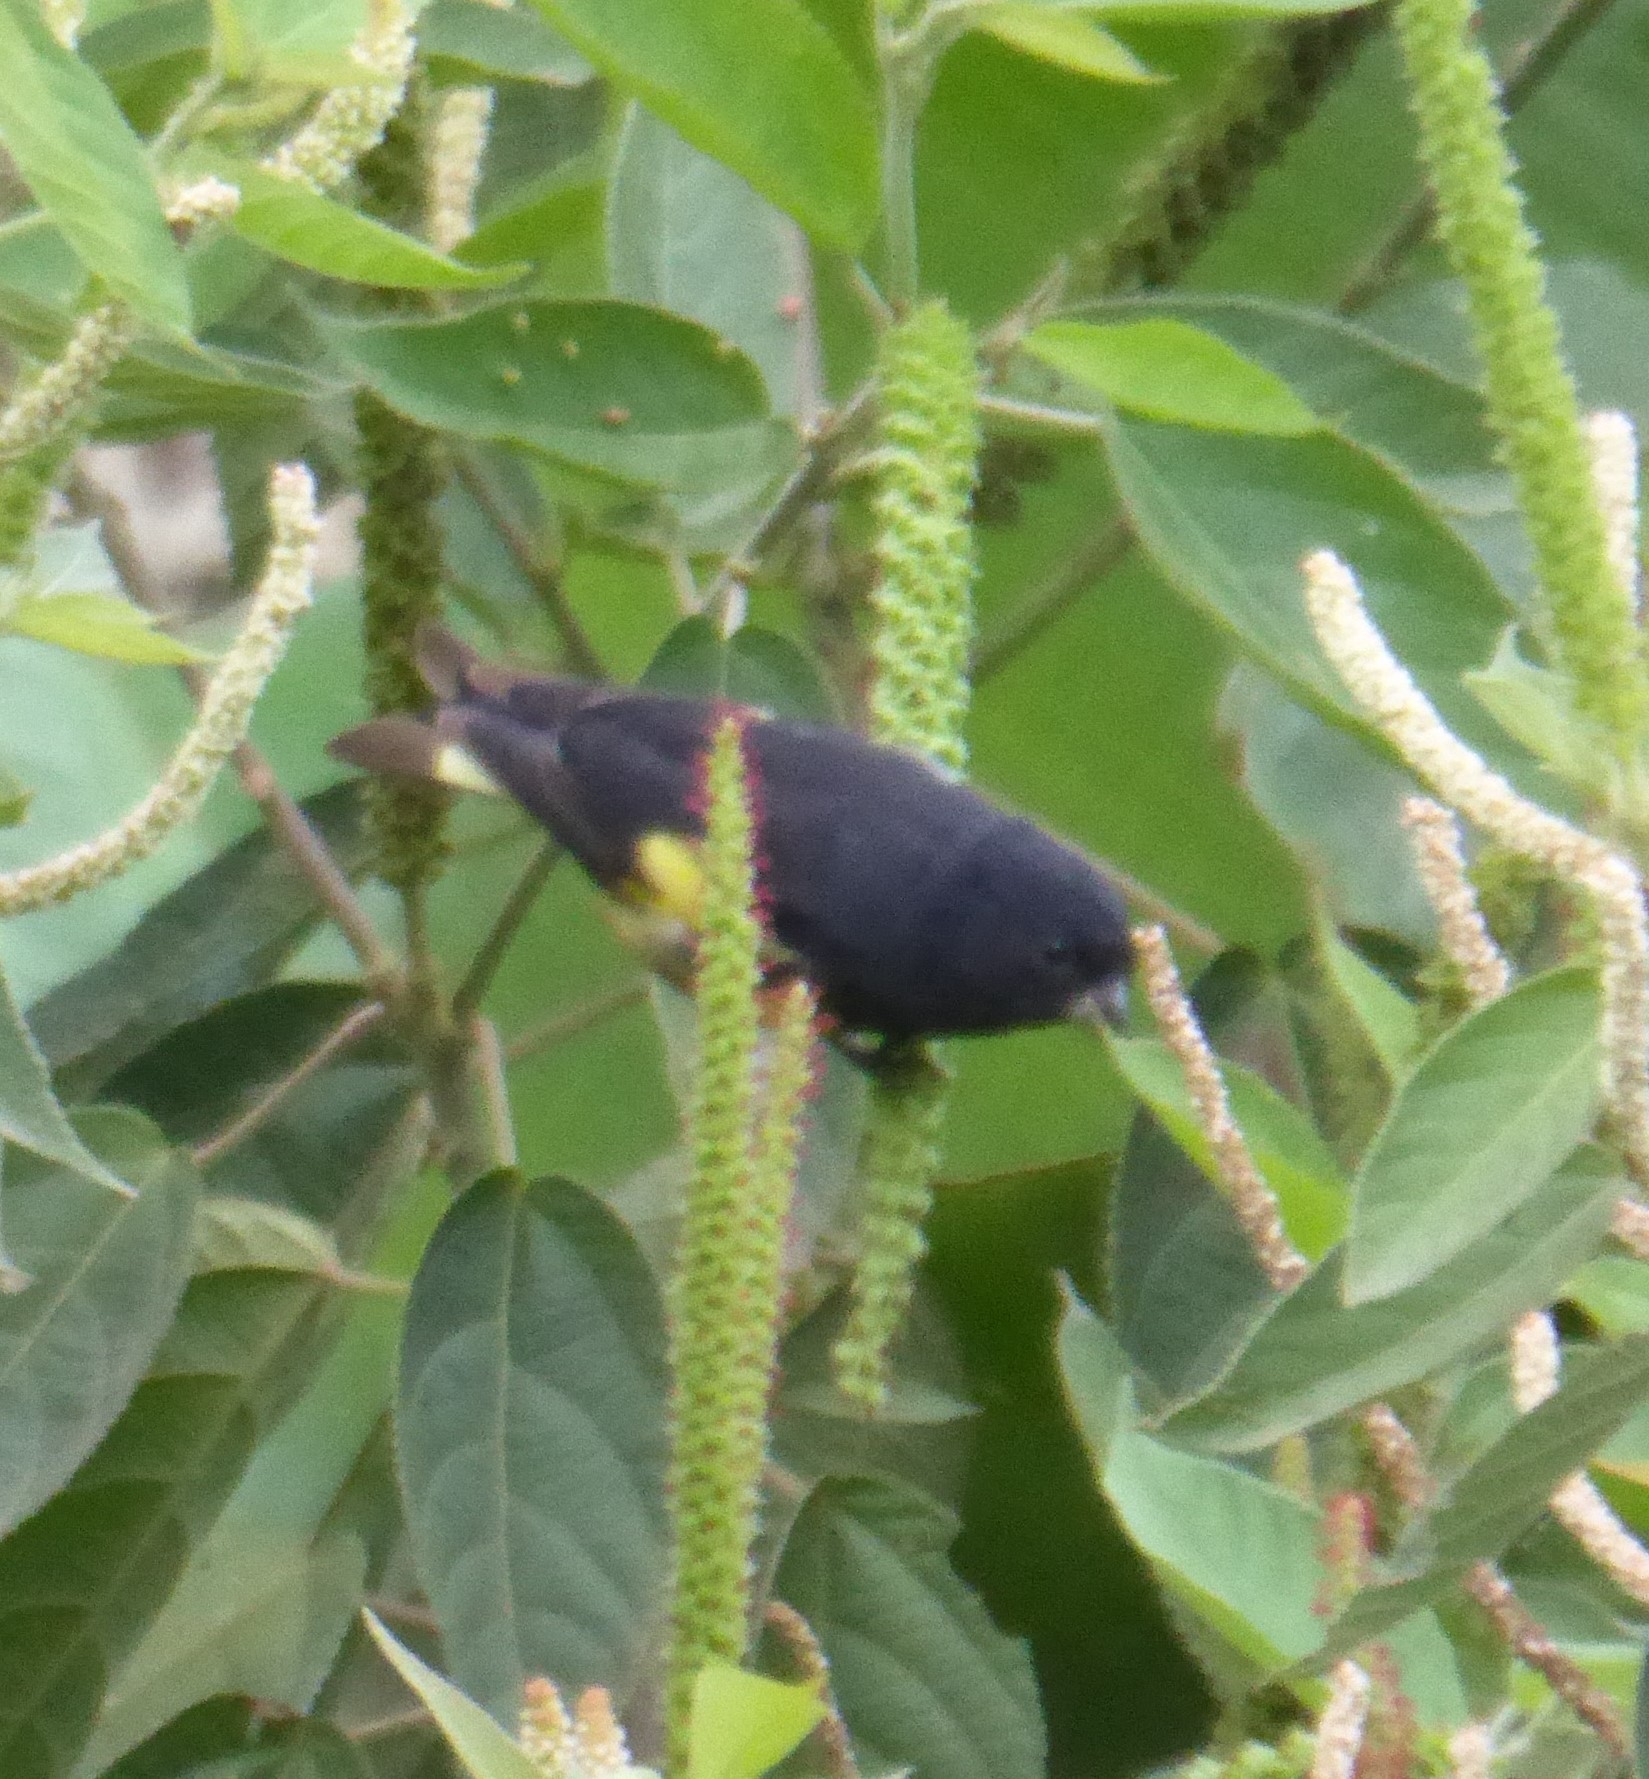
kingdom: Animalia
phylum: Chordata
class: Aves
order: Passeriformes
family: Fringillidae
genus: Spinus
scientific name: Spinus xanthogastrus
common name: Yellow-bellied siskin
